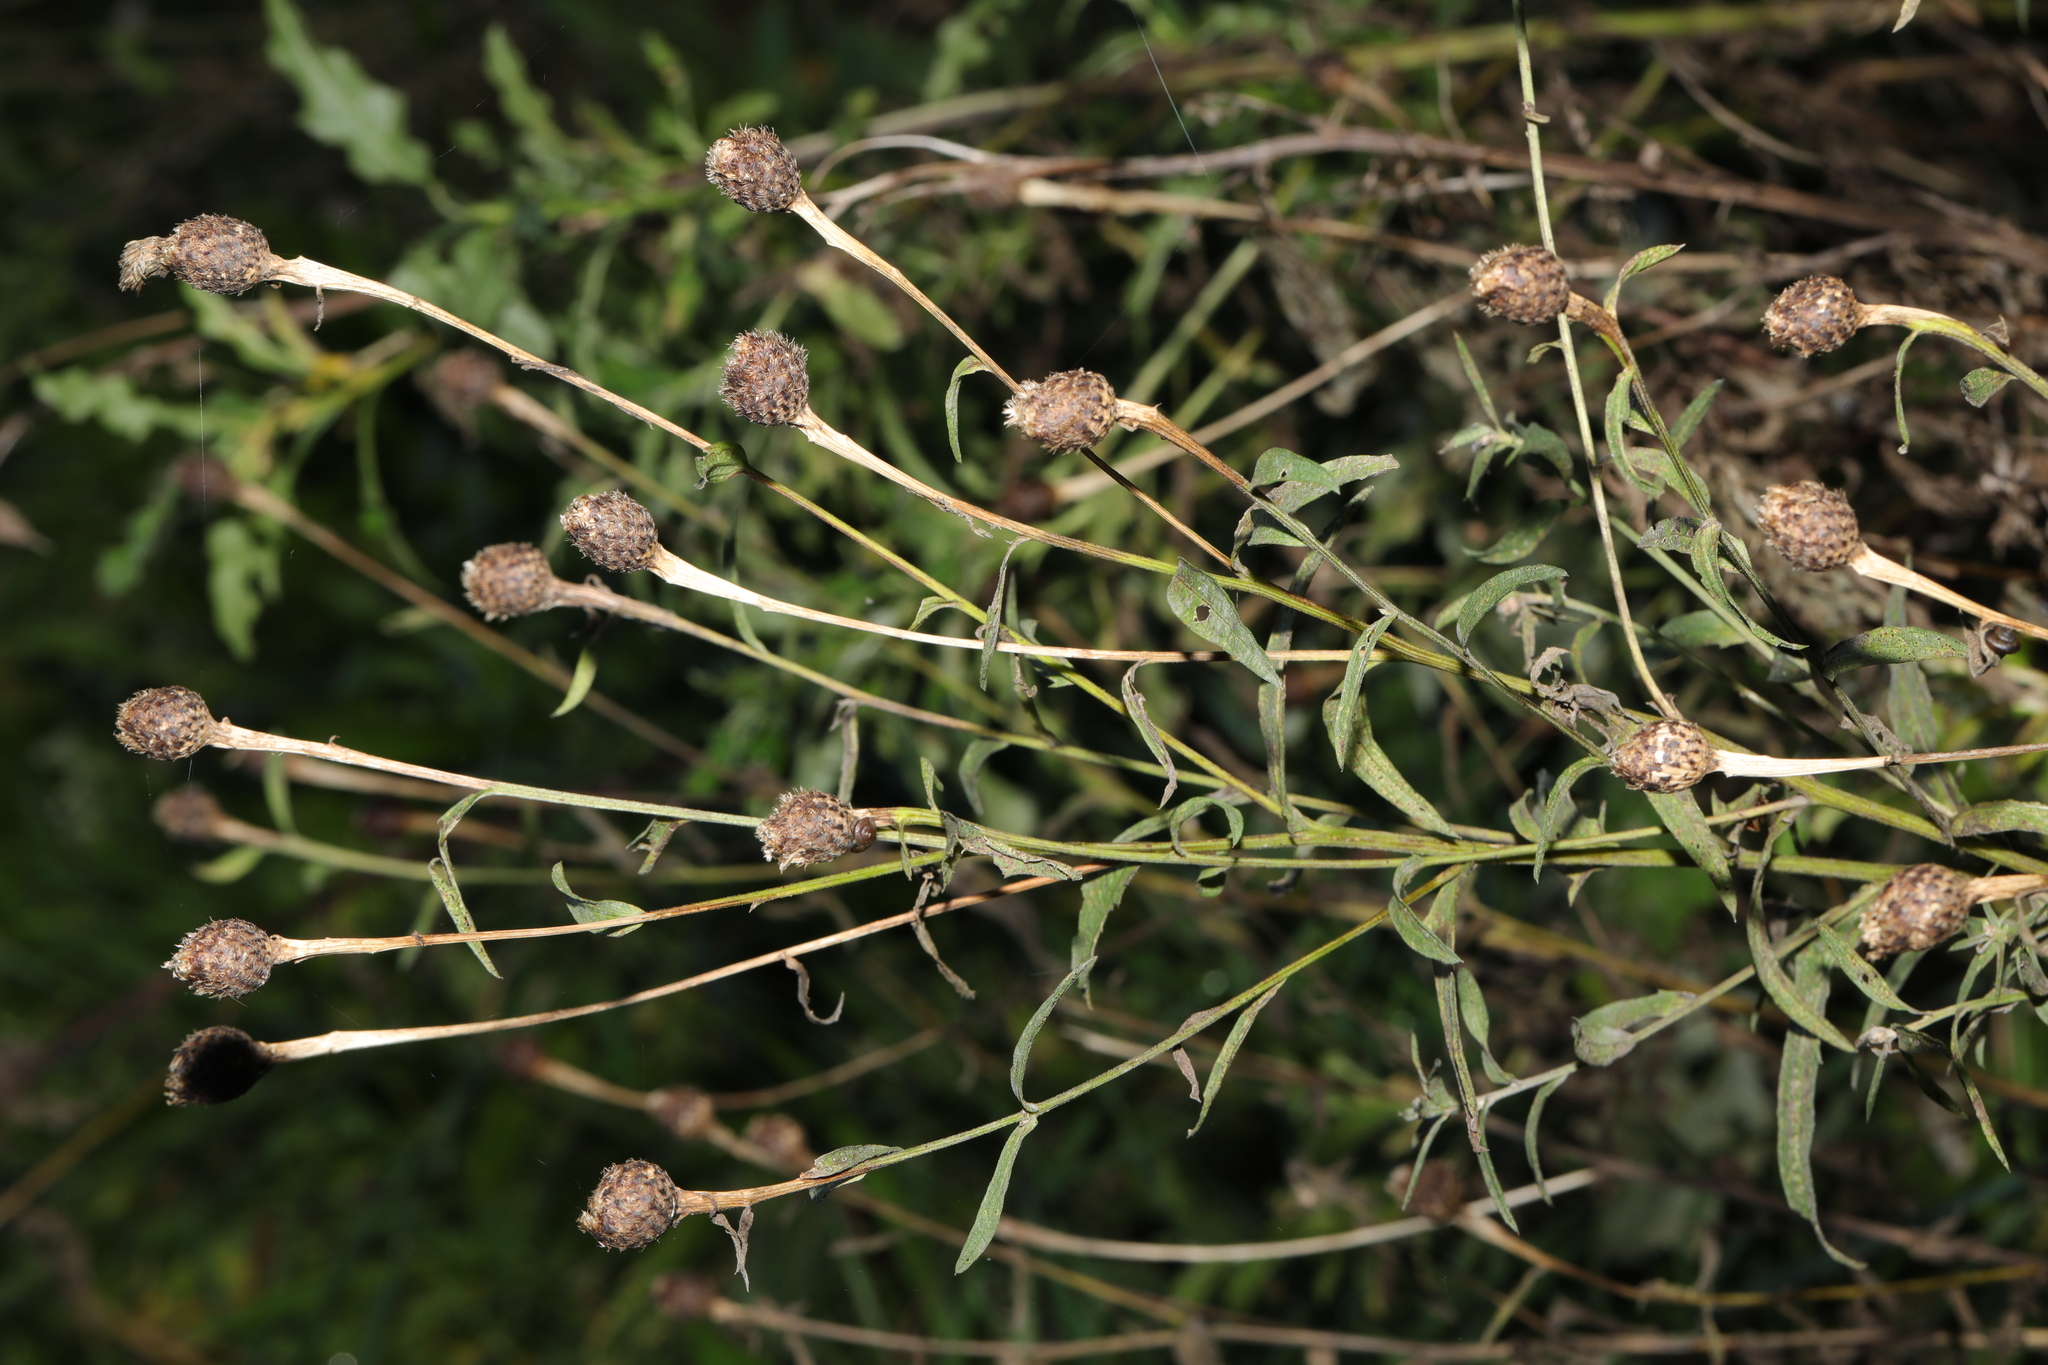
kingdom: Plantae
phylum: Tracheophyta
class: Magnoliopsida
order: Asterales
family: Asteraceae
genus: Centaurea
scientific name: Centaurea nigra
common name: Lesser knapweed
